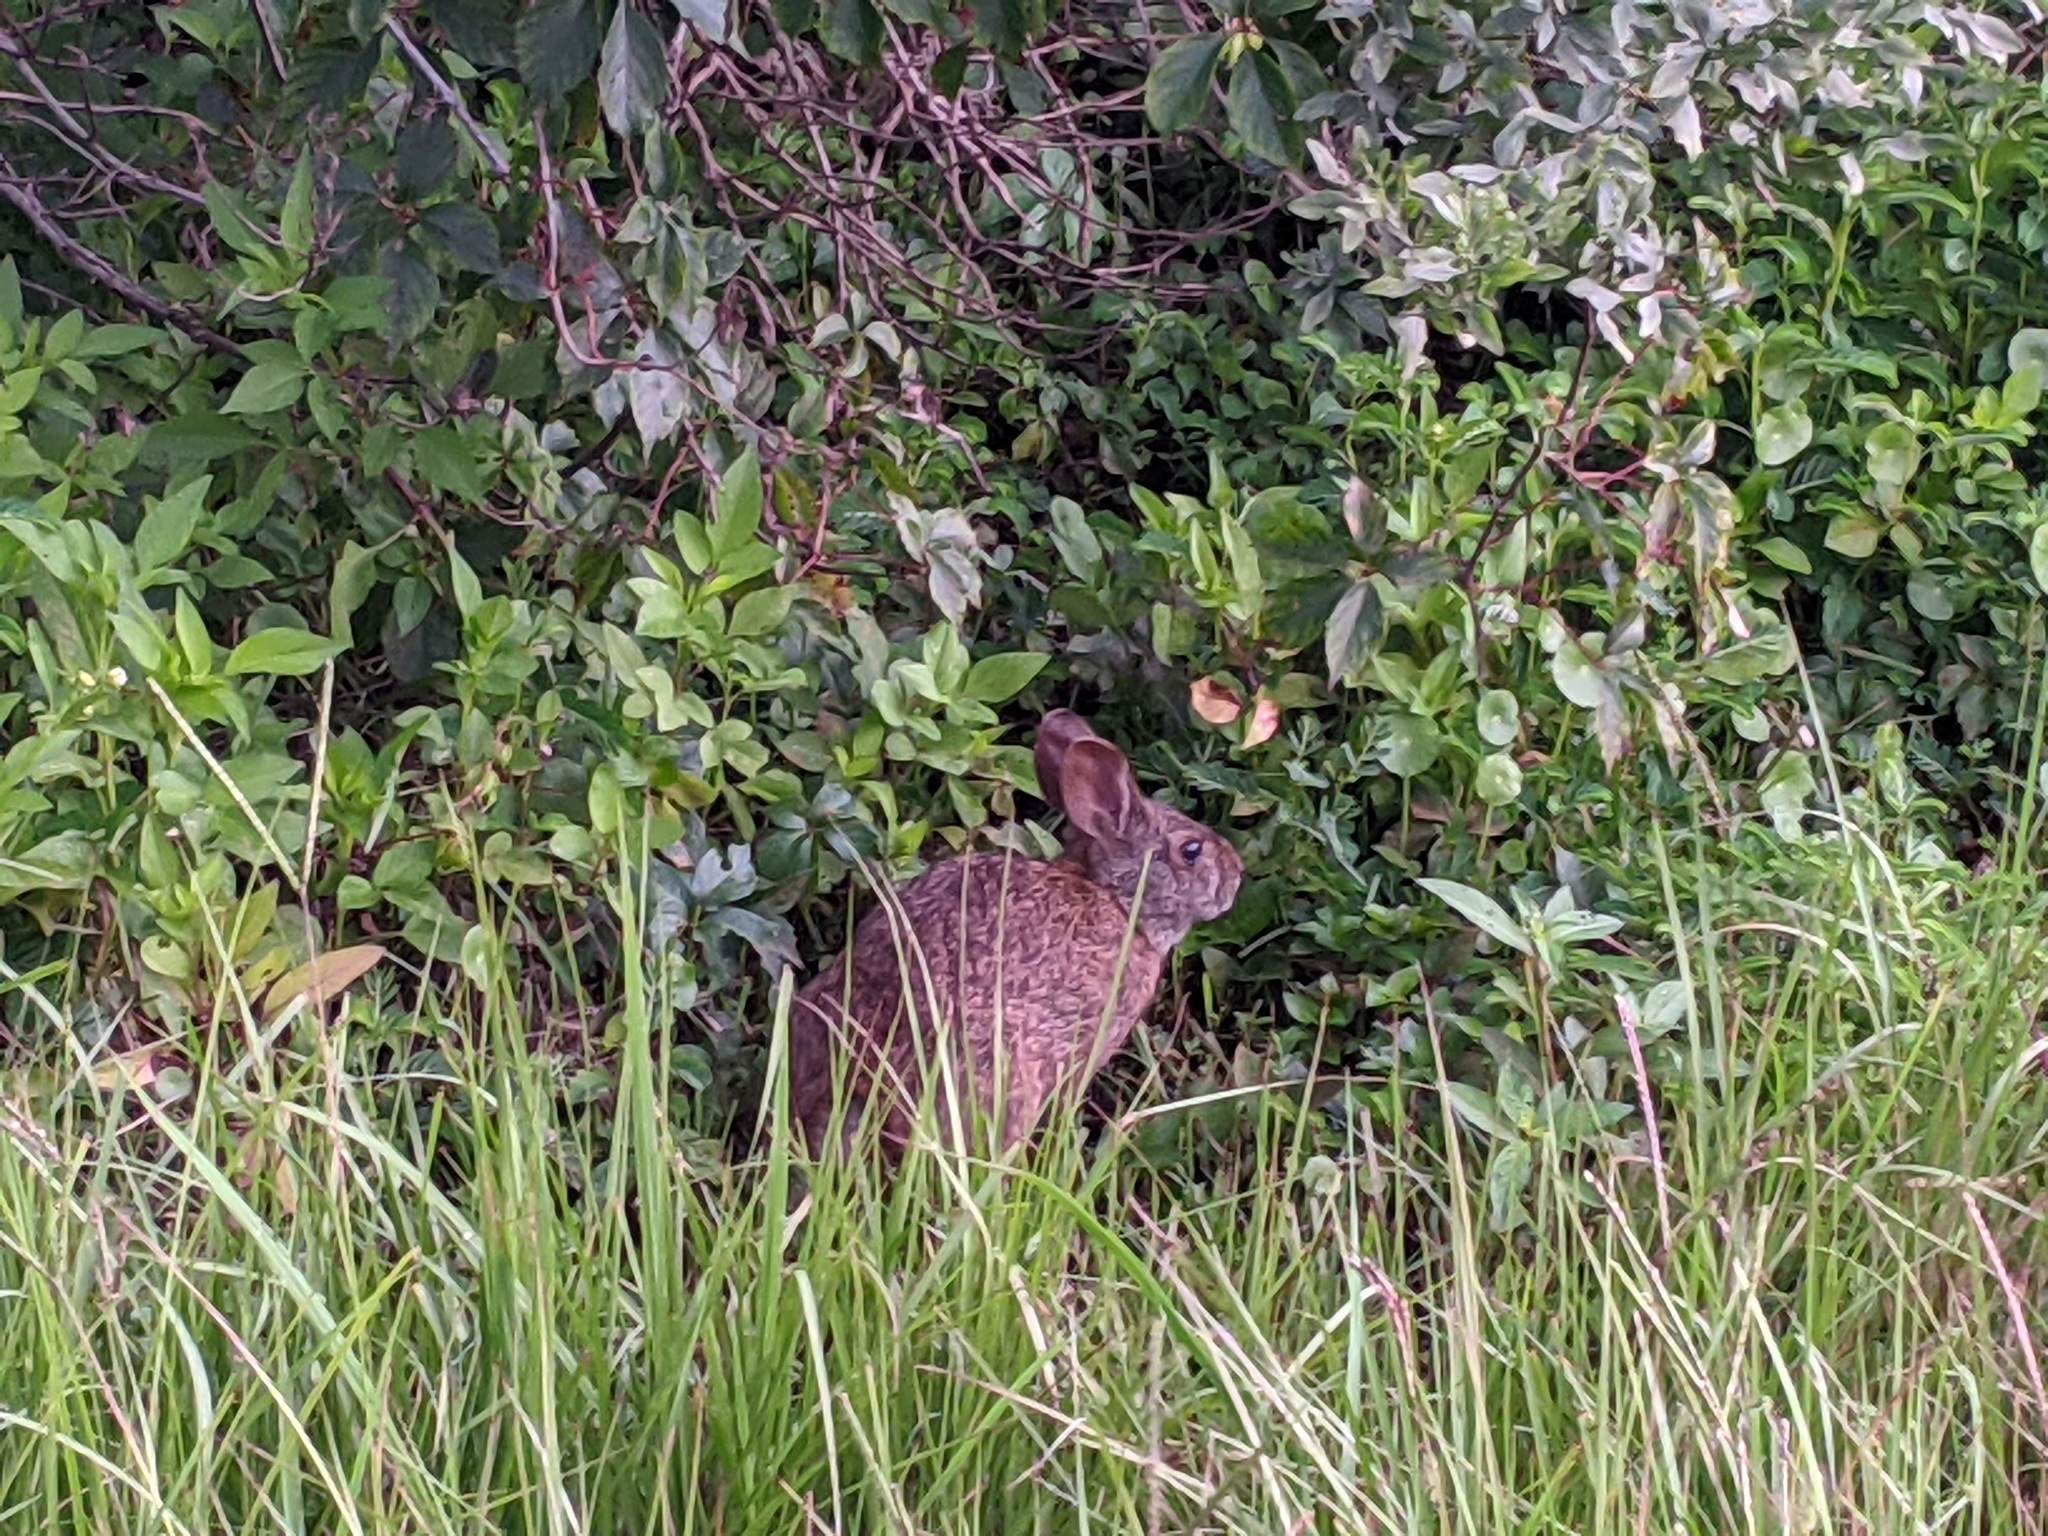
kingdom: Animalia
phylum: Chordata
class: Mammalia
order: Lagomorpha
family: Leporidae
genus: Sylvilagus
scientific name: Sylvilagus palustris
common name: Marsh rabbit
